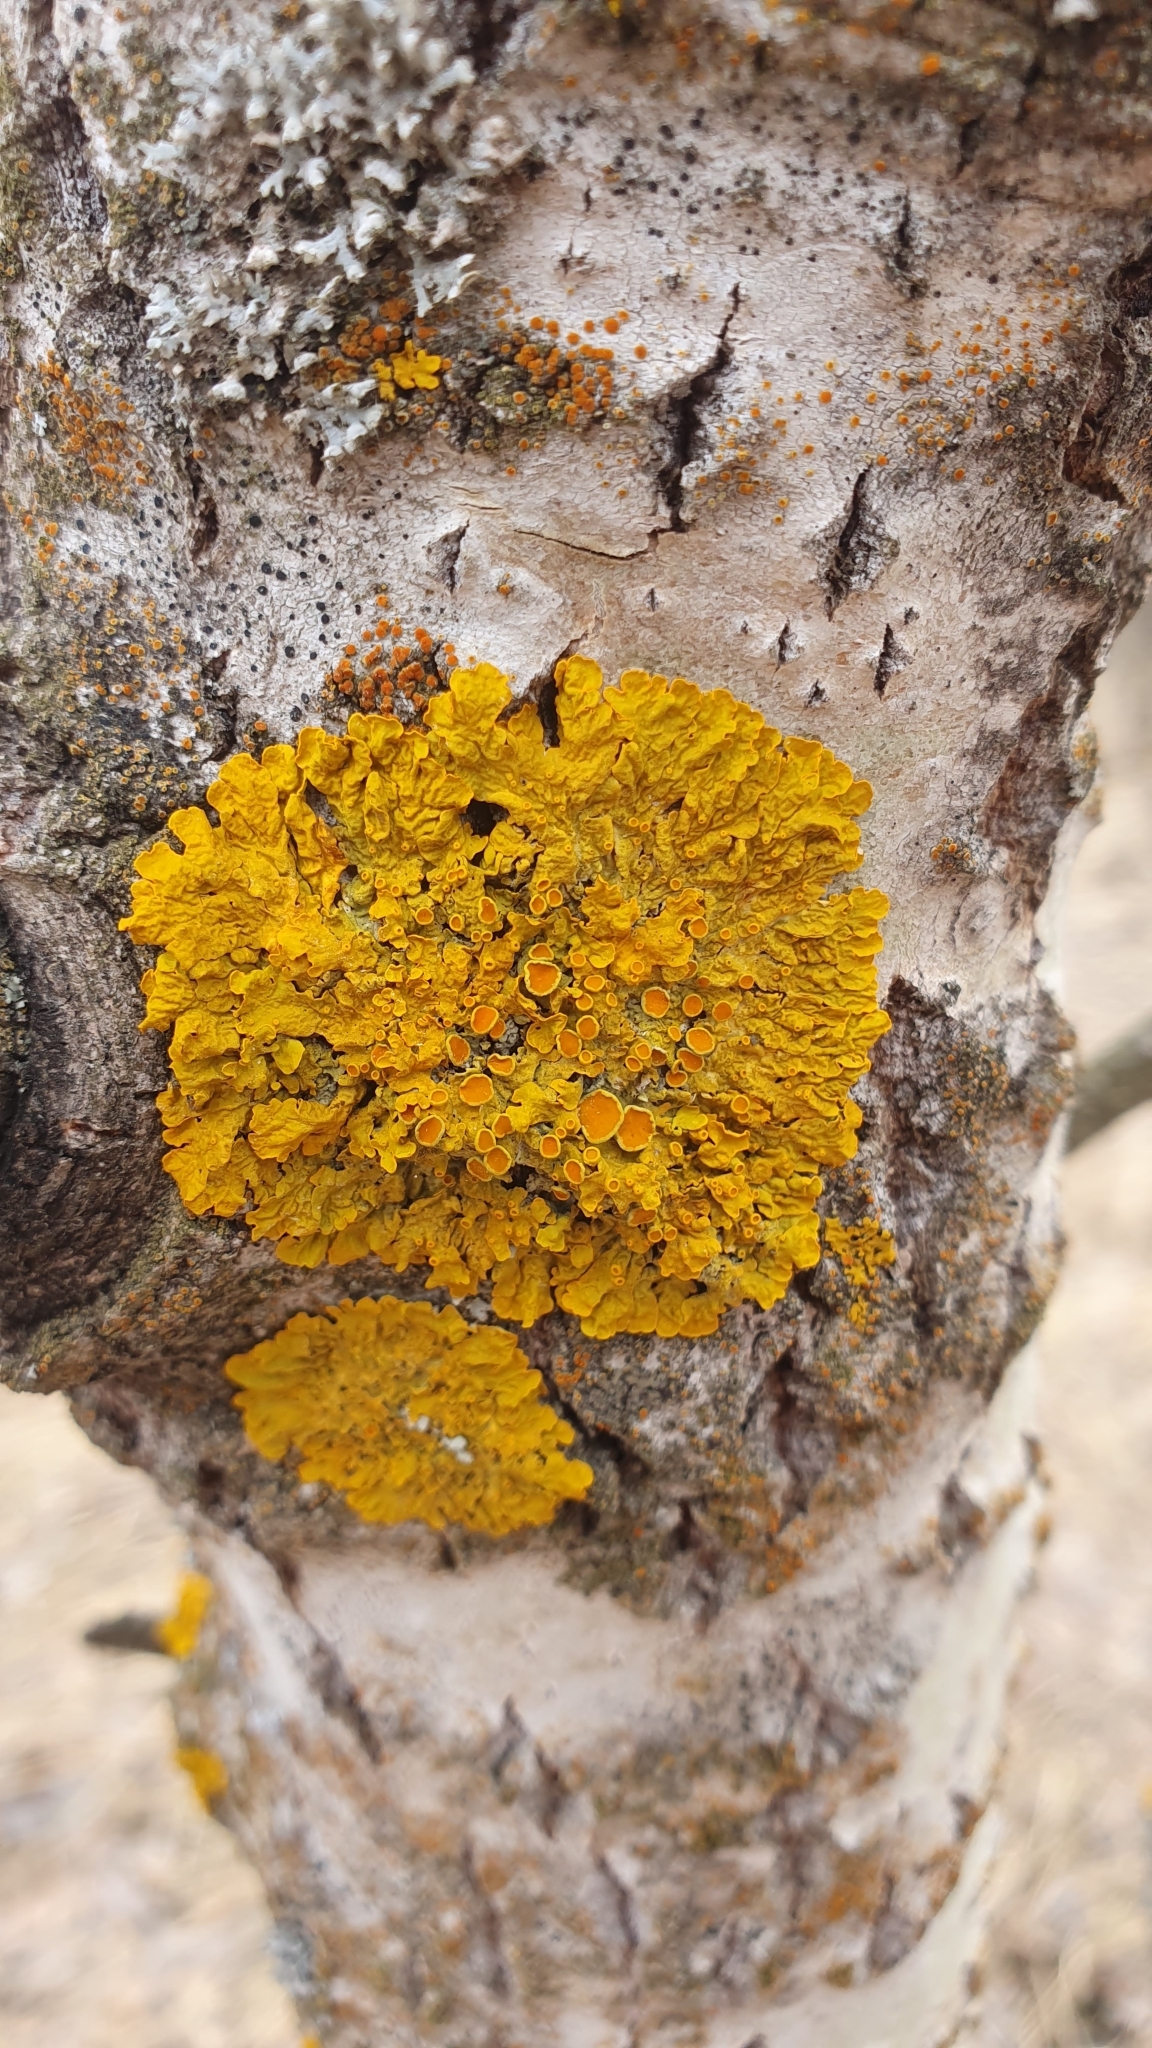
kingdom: Fungi
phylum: Ascomycota
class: Lecanoromycetes
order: Teloschistales
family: Teloschistaceae
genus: Xanthoria
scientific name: Xanthoria parietina
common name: Common orange lichen
